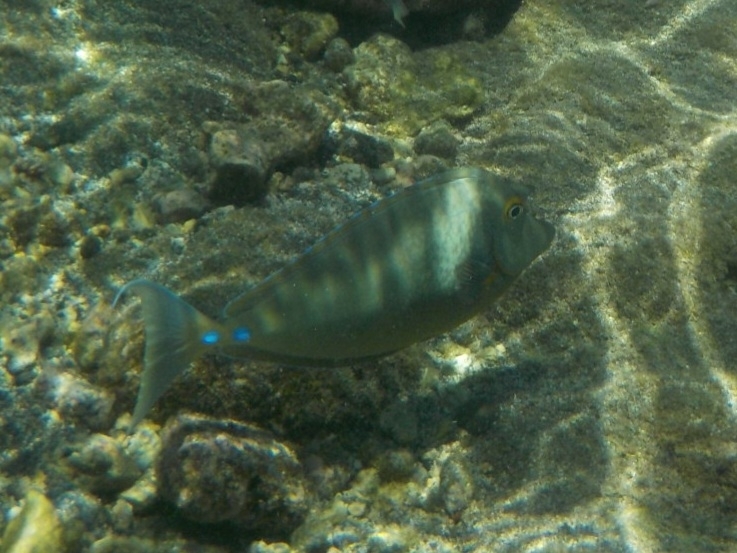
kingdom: Animalia
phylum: Chordata
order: Perciformes
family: Acanthuridae
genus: Naso
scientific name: Naso unicornis
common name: Bluespine unicornfish
